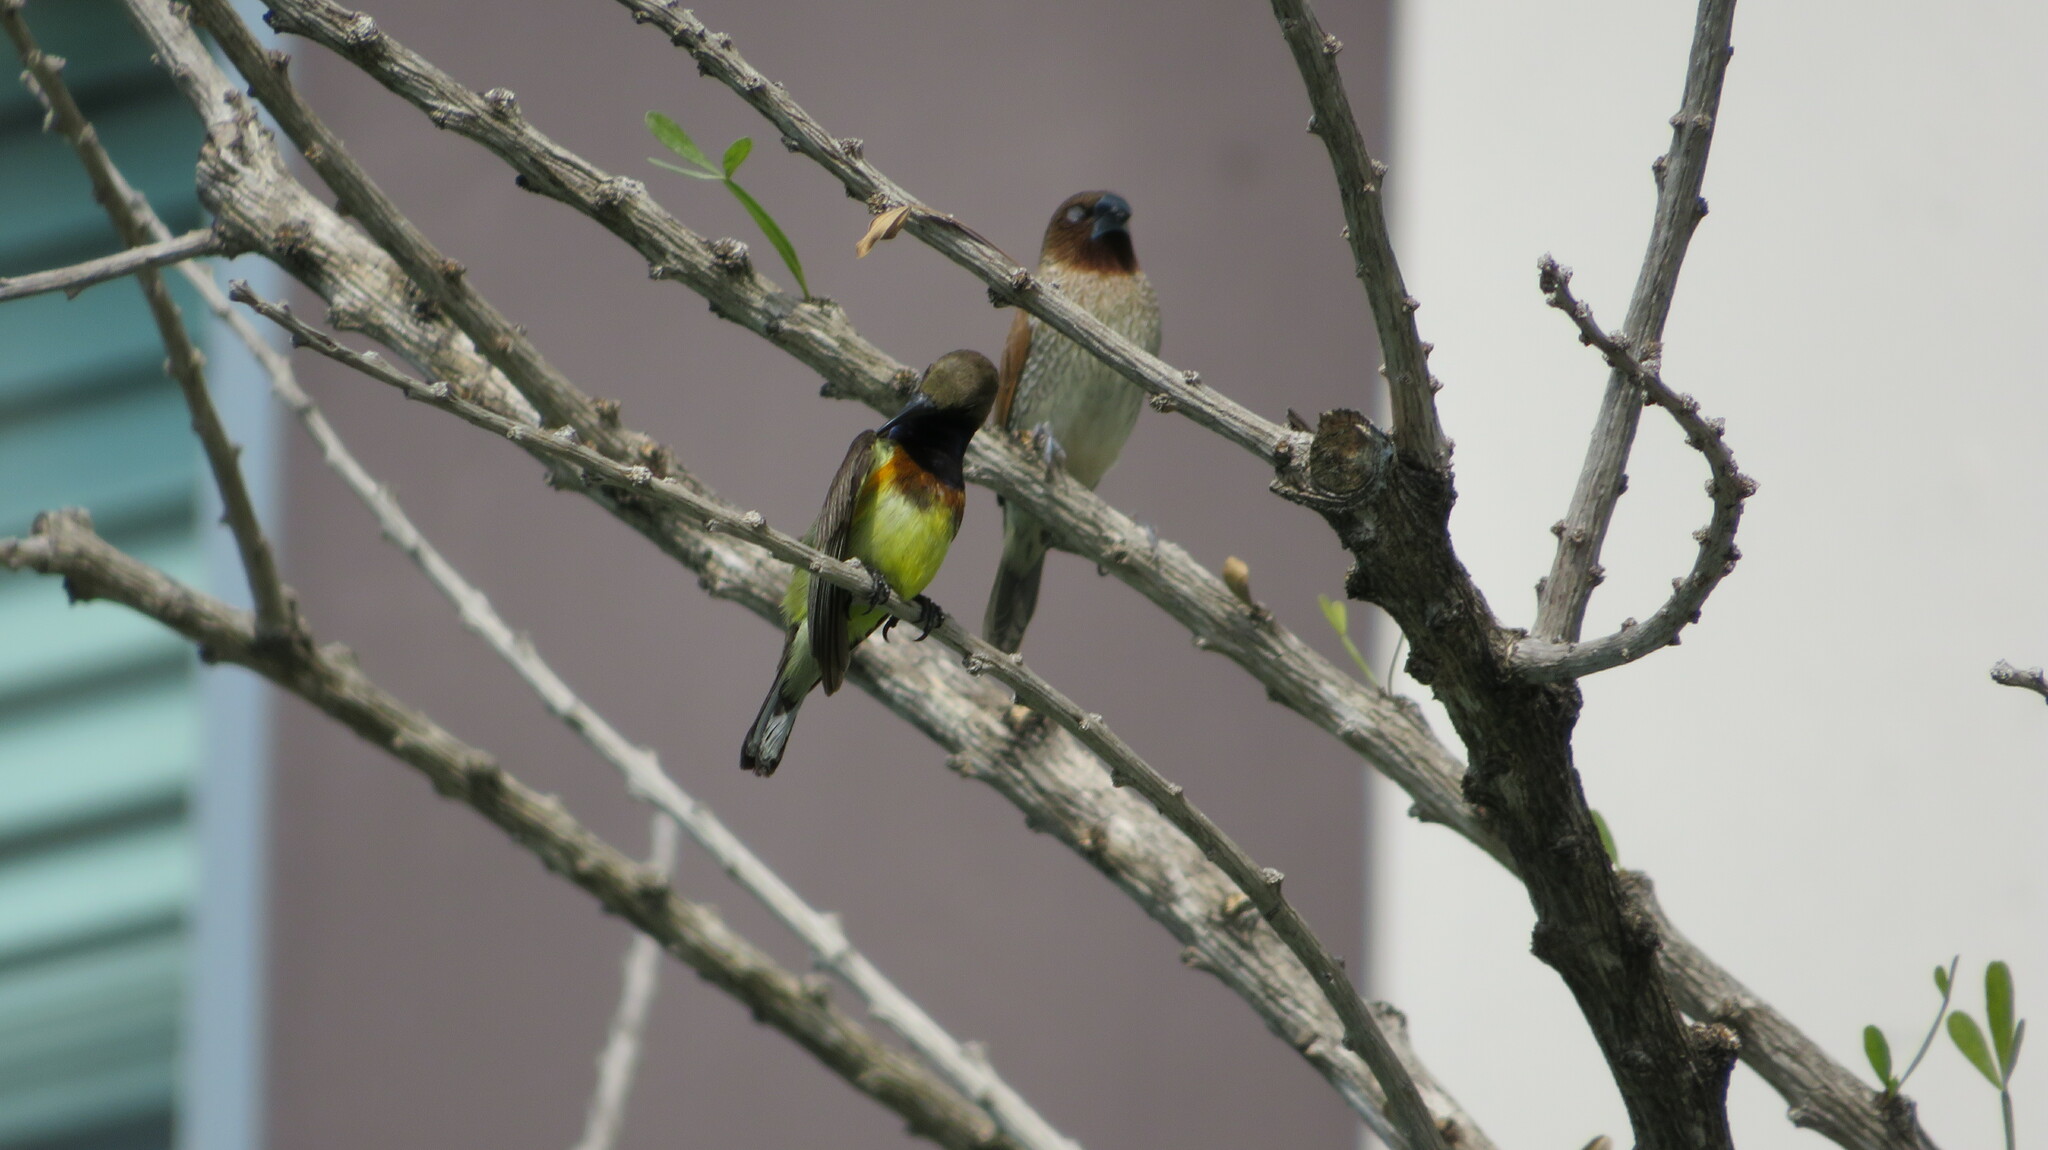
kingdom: Animalia
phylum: Chordata
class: Aves
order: Passeriformes
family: Estrildidae
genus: Lonchura
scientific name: Lonchura punctulata
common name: Scaly-breasted munia
